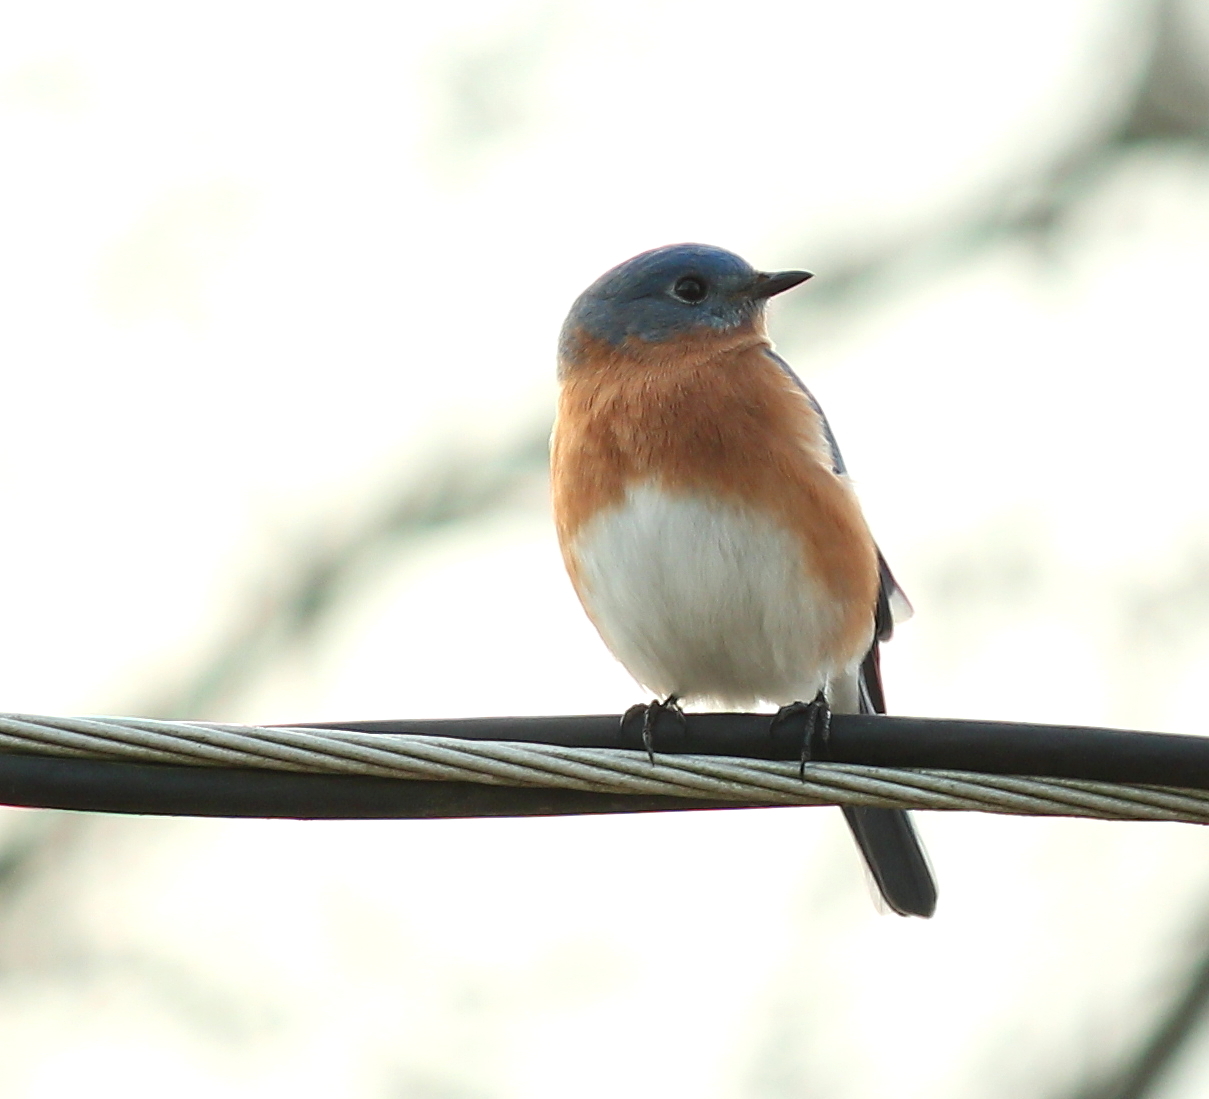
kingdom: Animalia
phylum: Chordata
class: Aves
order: Passeriformes
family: Turdidae
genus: Sialia
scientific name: Sialia sialis
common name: Eastern bluebird
